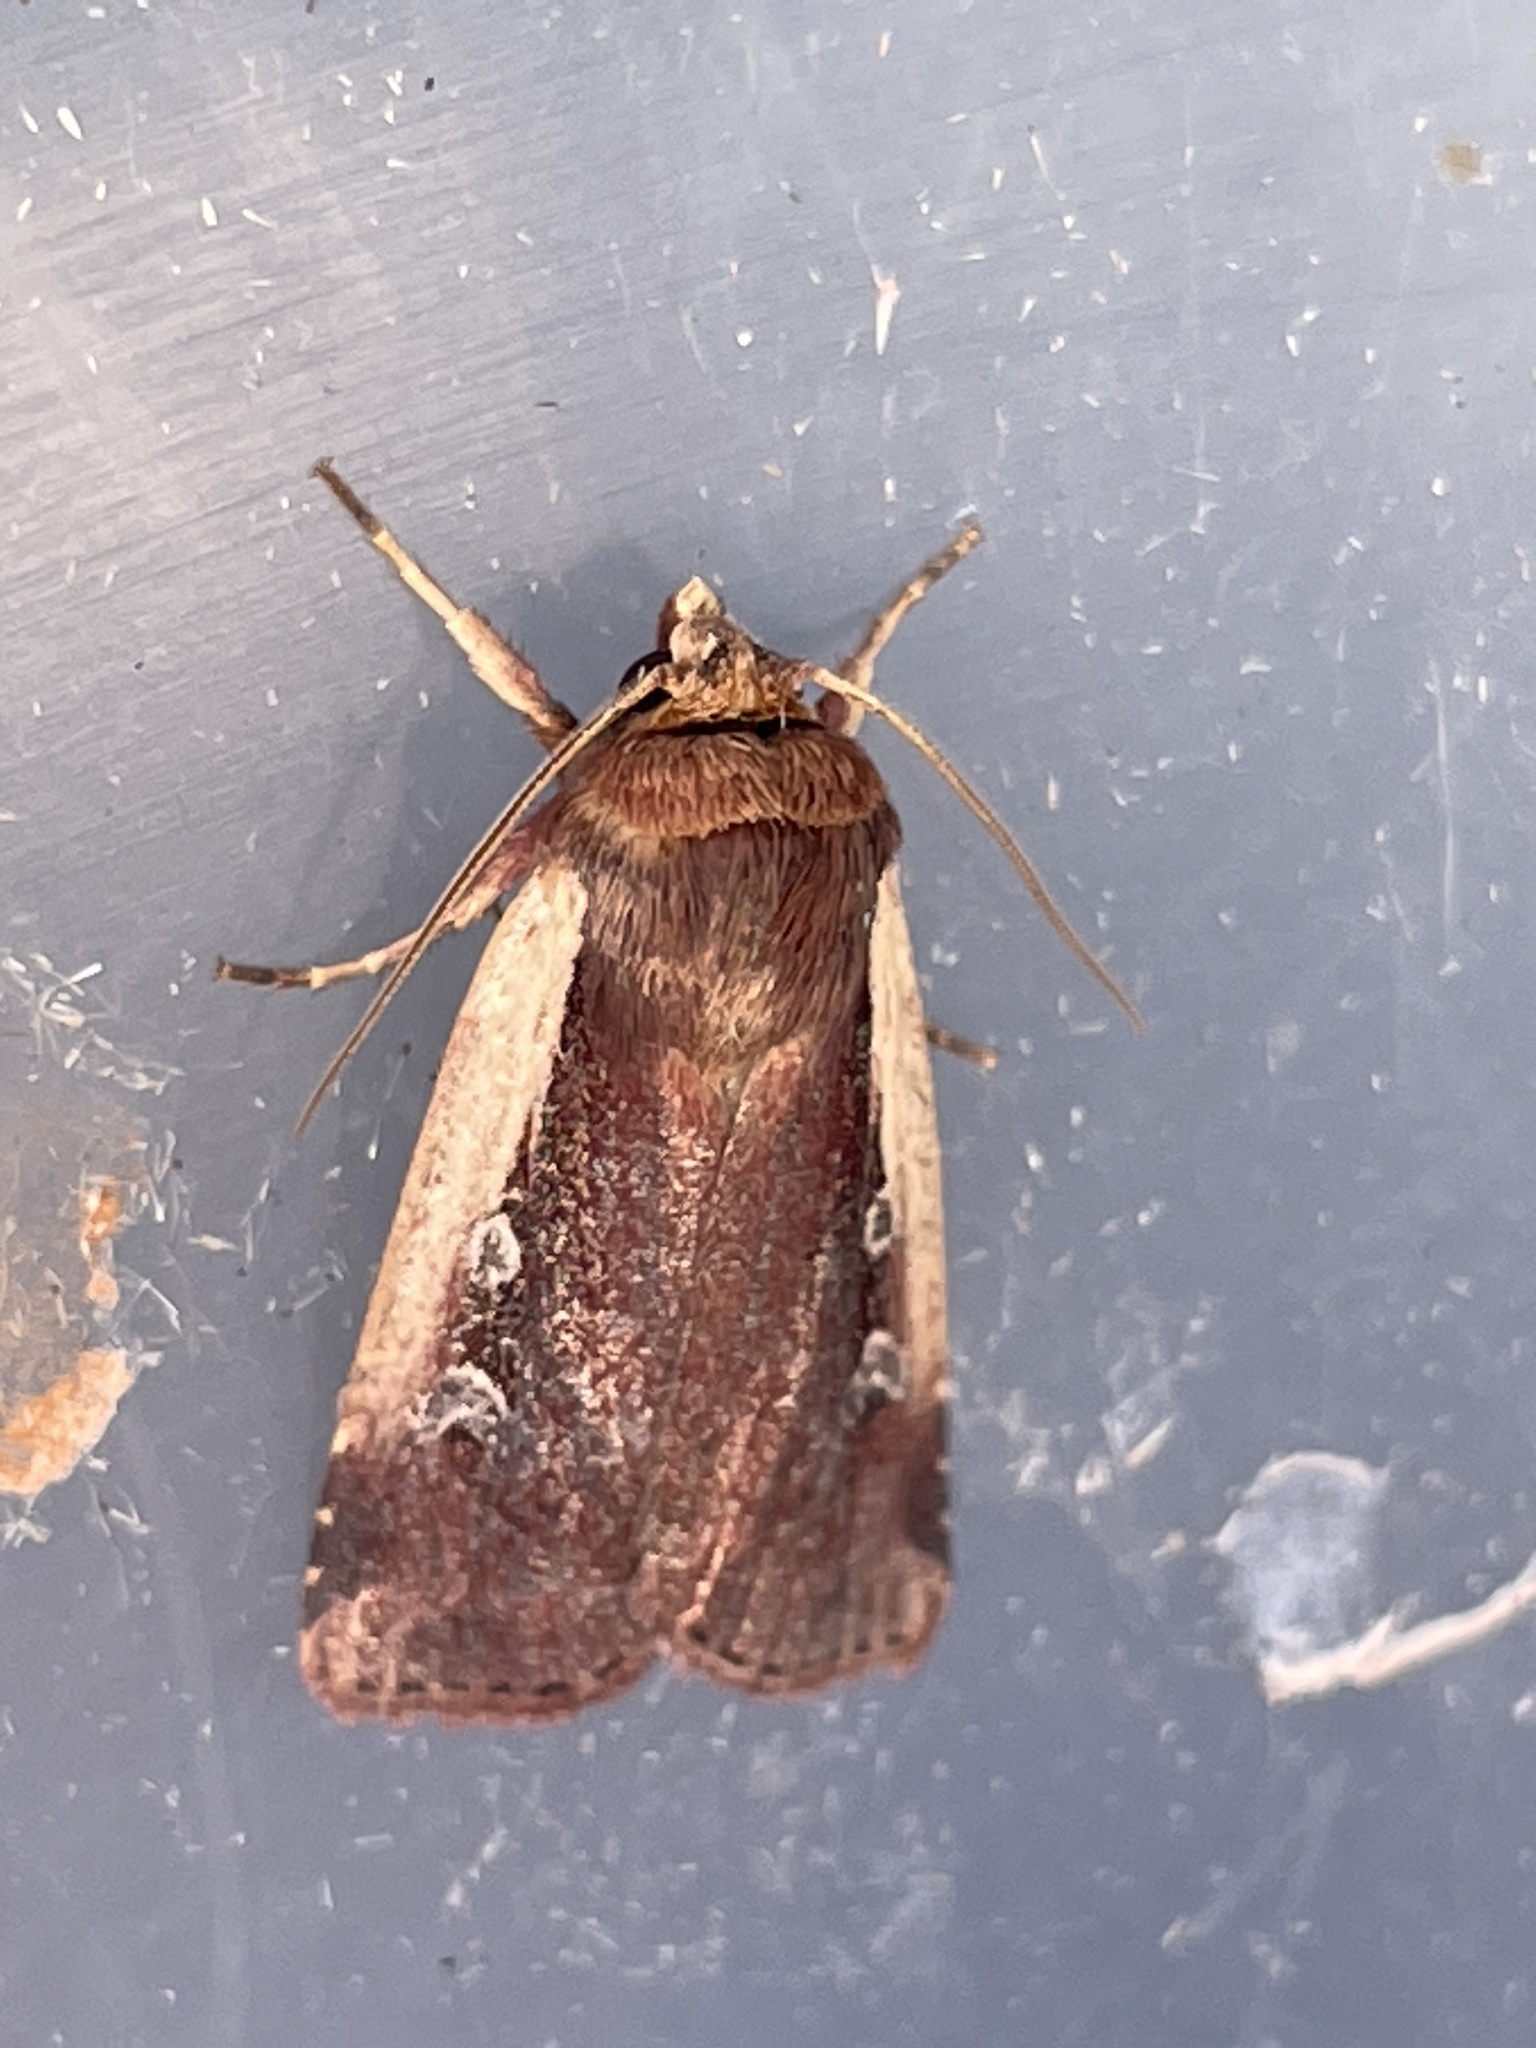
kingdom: Animalia
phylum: Arthropoda
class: Insecta
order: Lepidoptera
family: Noctuidae
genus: Ochropleura
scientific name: Ochropleura plecta
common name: Flame shoulder
